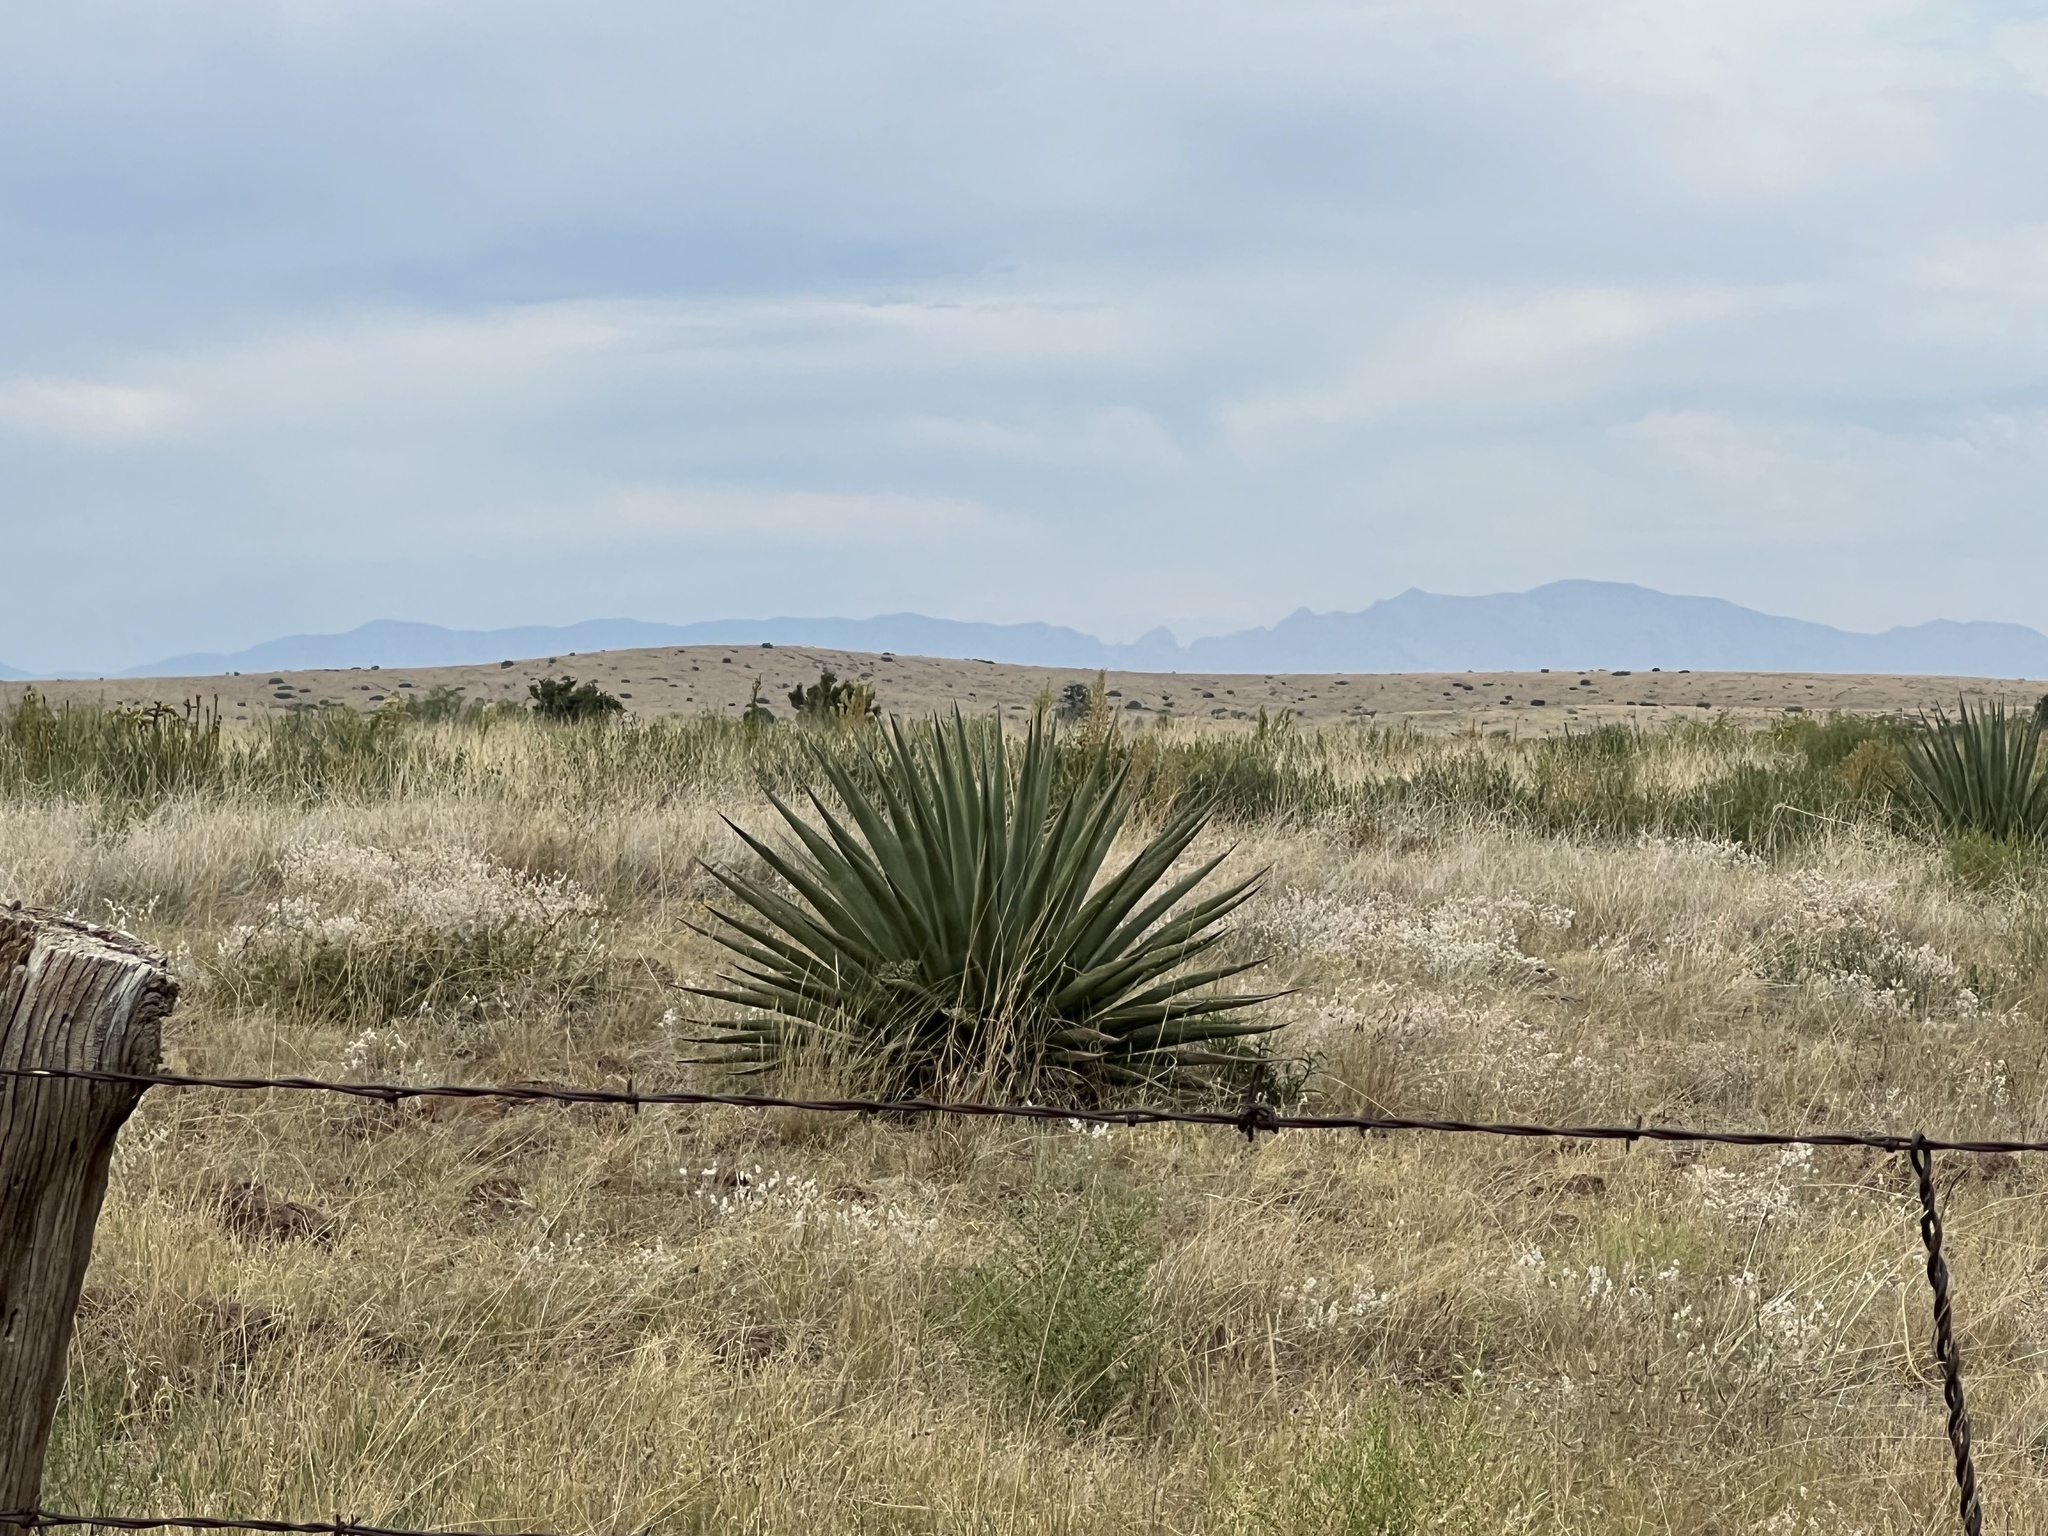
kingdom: Plantae
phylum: Tracheophyta
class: Liliopsida
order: Asparagales
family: Asparagaceae
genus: Agave
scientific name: Agave palmeri
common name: Palmer agave
